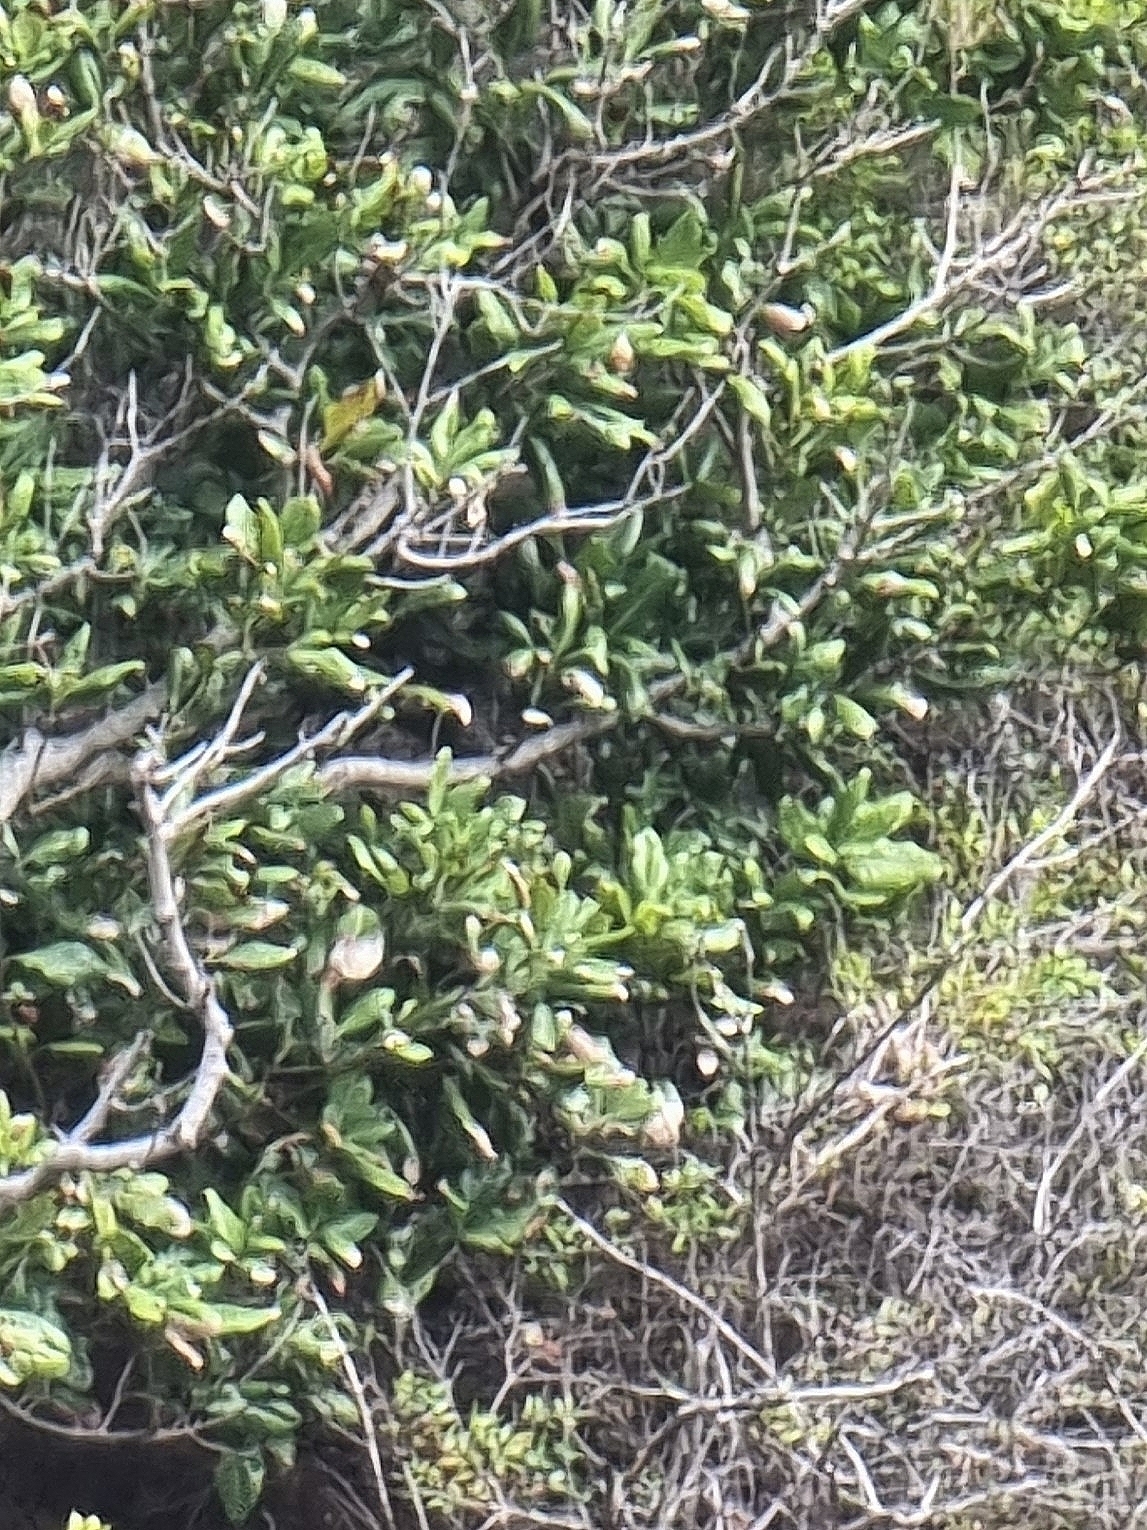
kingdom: Plantae
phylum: Tracheophyta
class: Magnoliopsida
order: Laurales
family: Lauraceae
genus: Apollonias
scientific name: Apollonias barbujana
